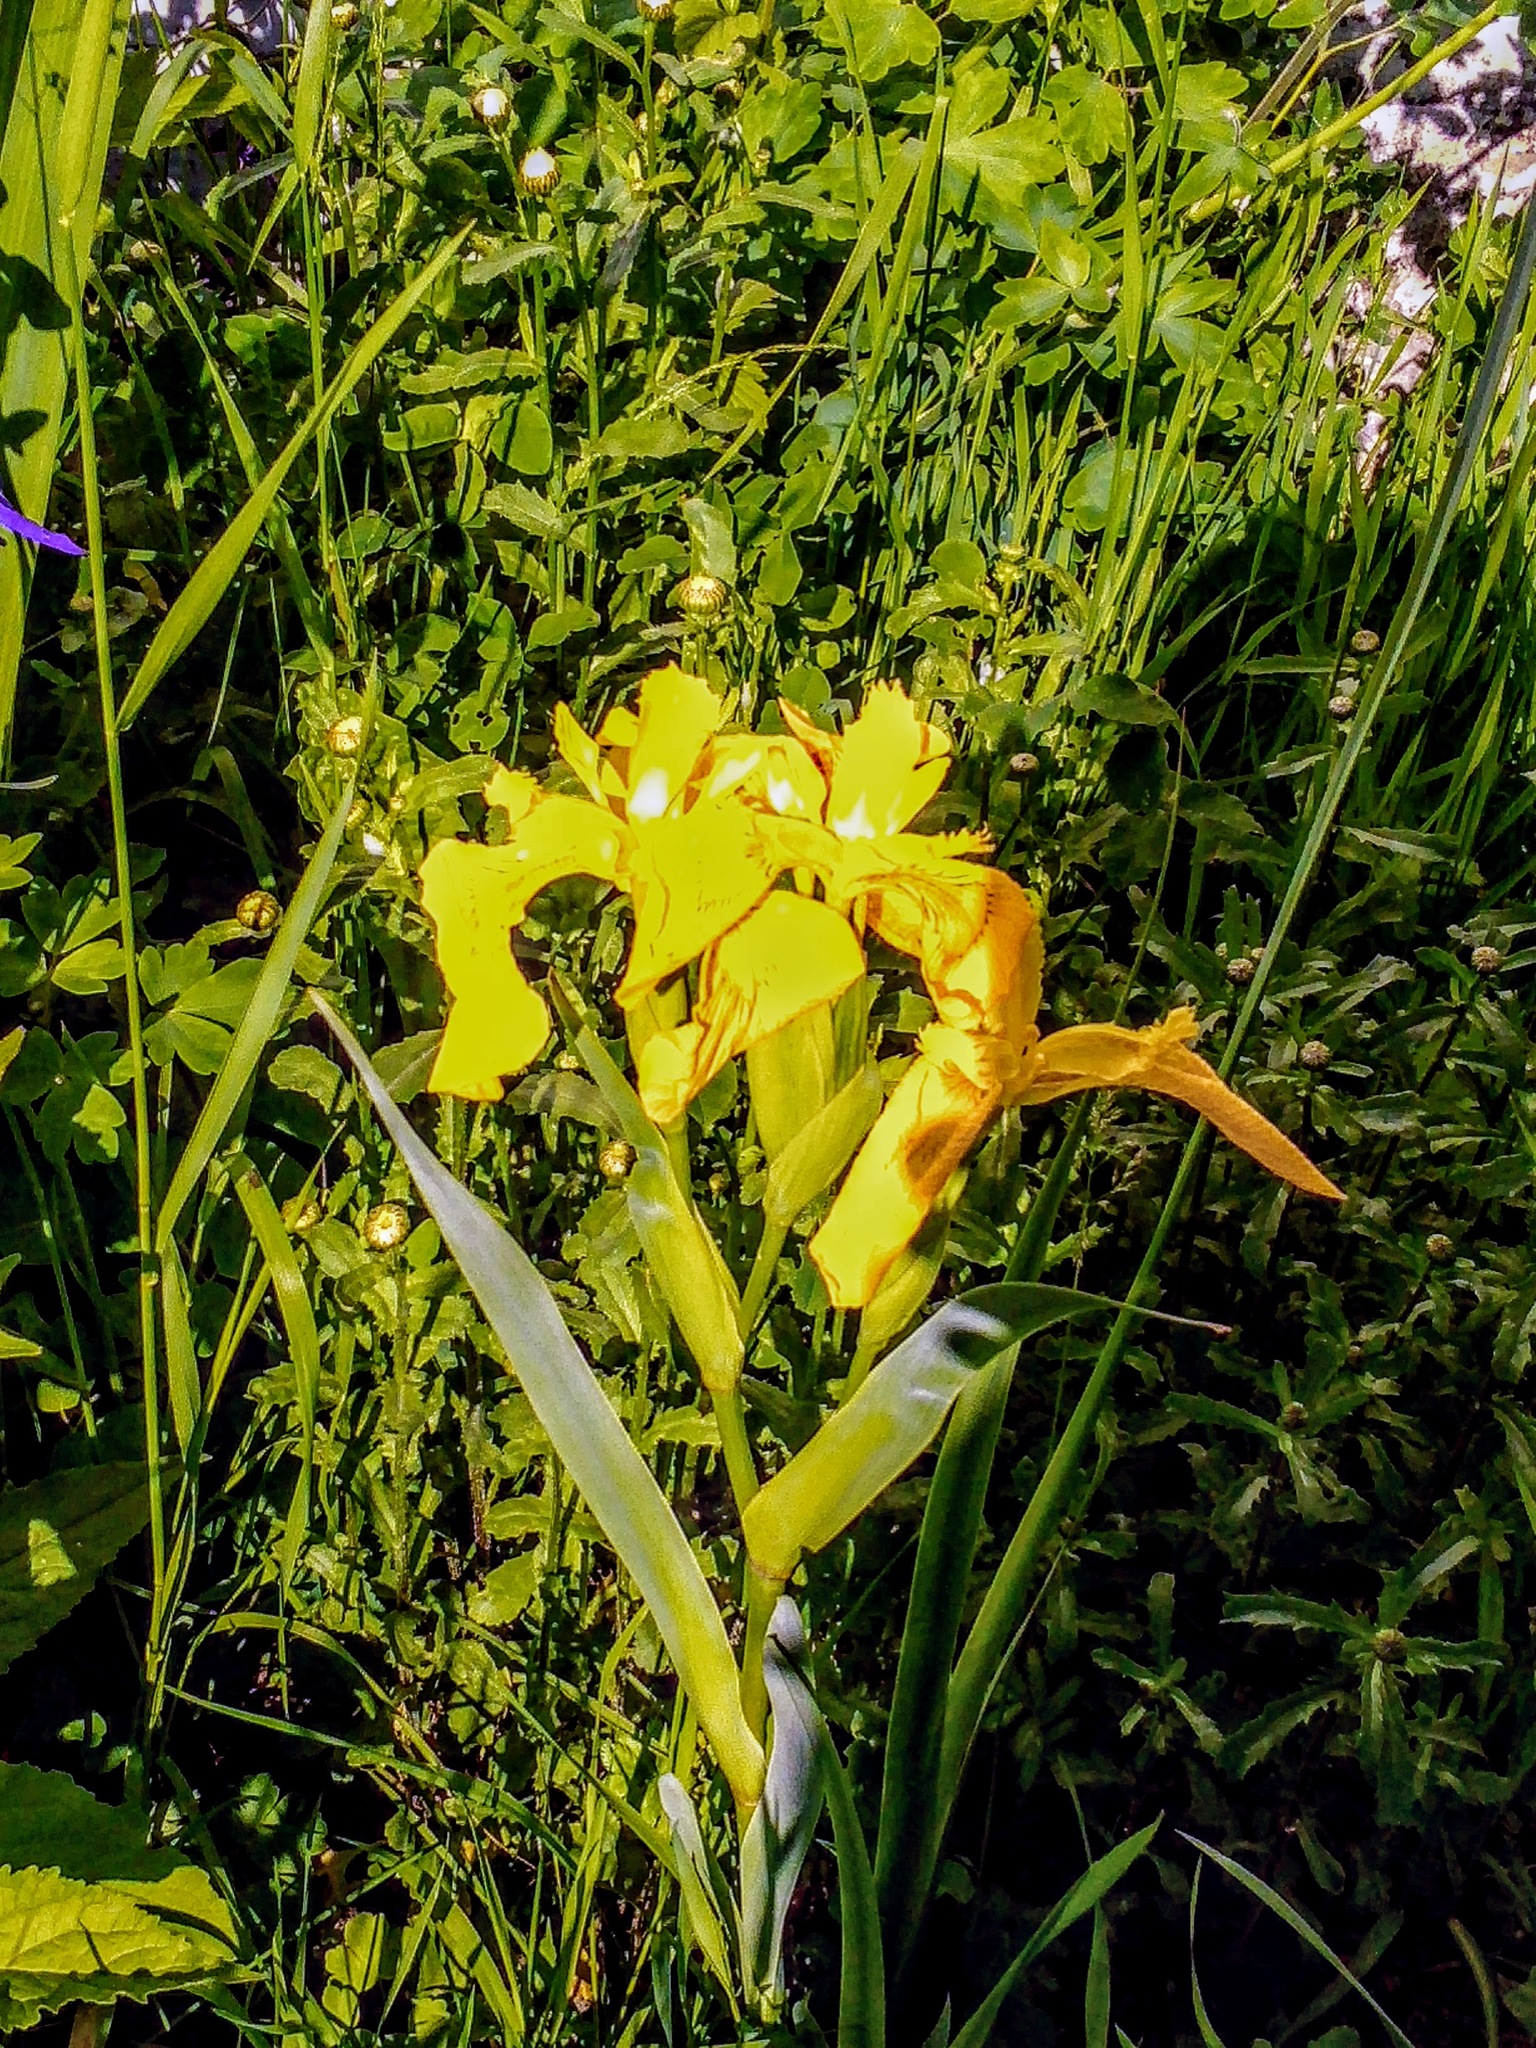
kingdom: Plantae
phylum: Tracheophyta
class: Liliopsida
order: Asparagales
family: Iridaceae
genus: Iris
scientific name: Iris pseudacorus
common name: Yellow flag
